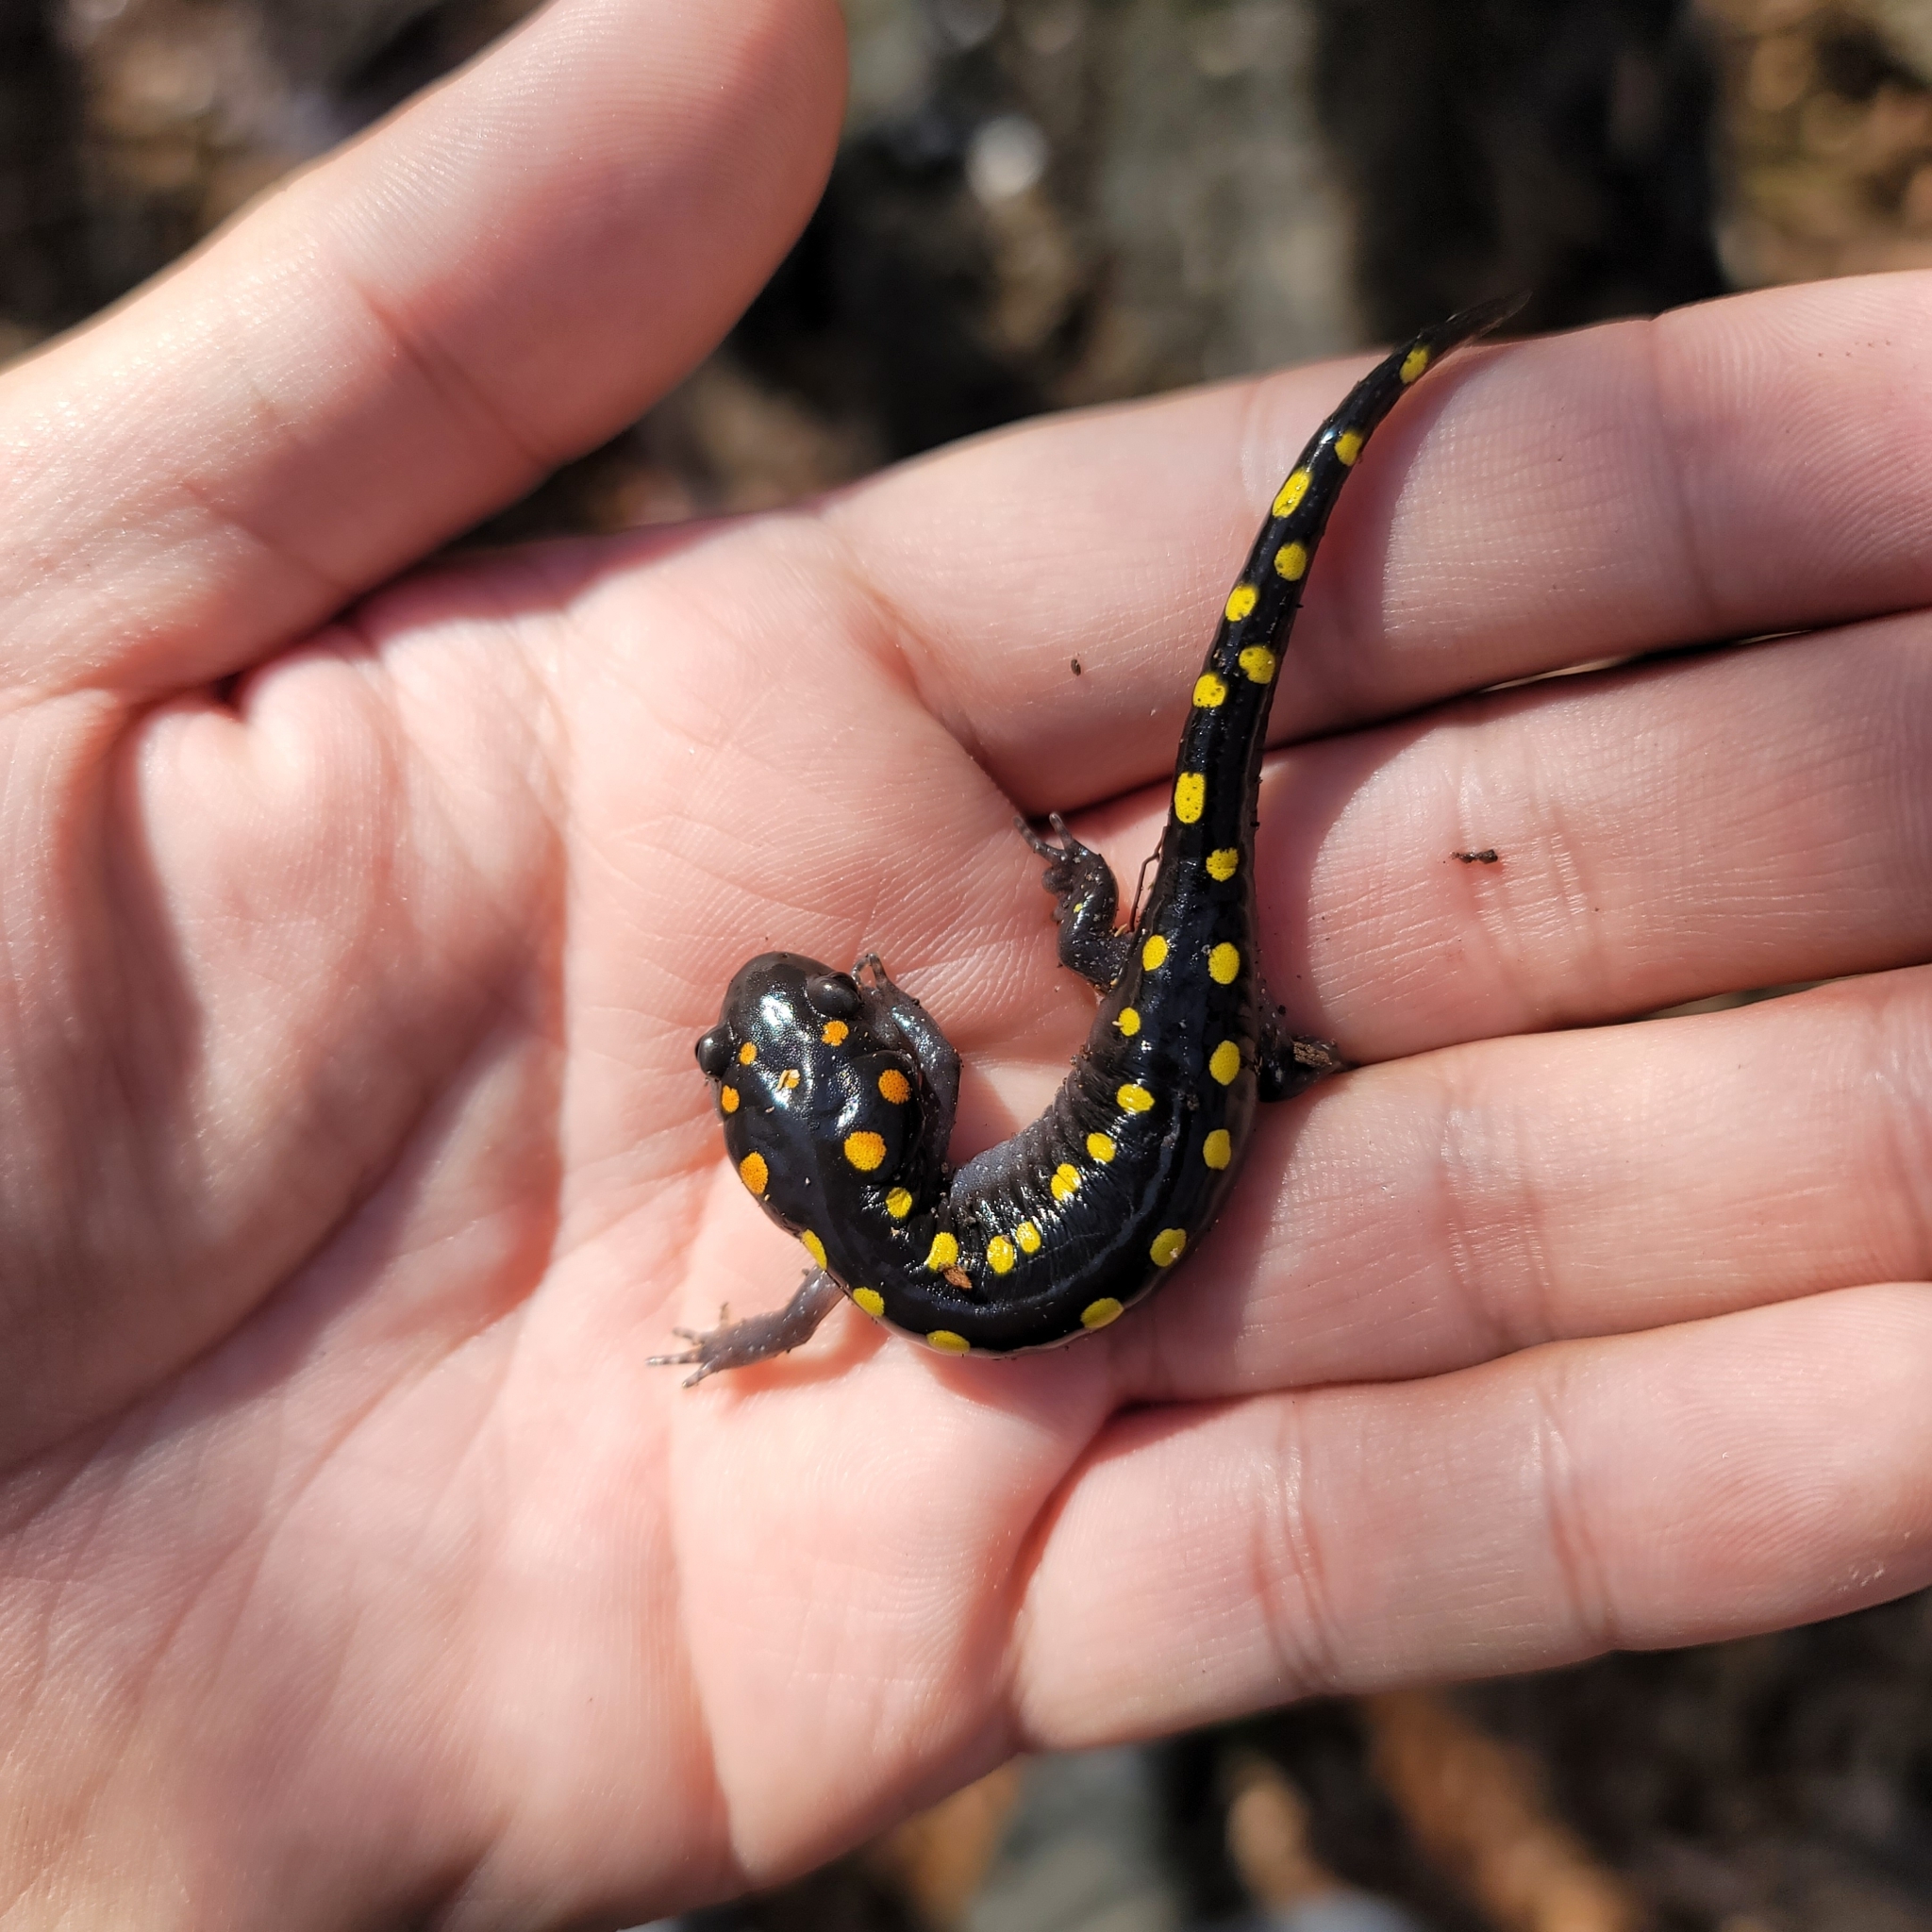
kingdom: Animalia
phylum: Chordata
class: Amphibia
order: Caudata
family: Ambystomatidae
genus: Ambystoma
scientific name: Ambystoma maculatum
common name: Spotted salamander
